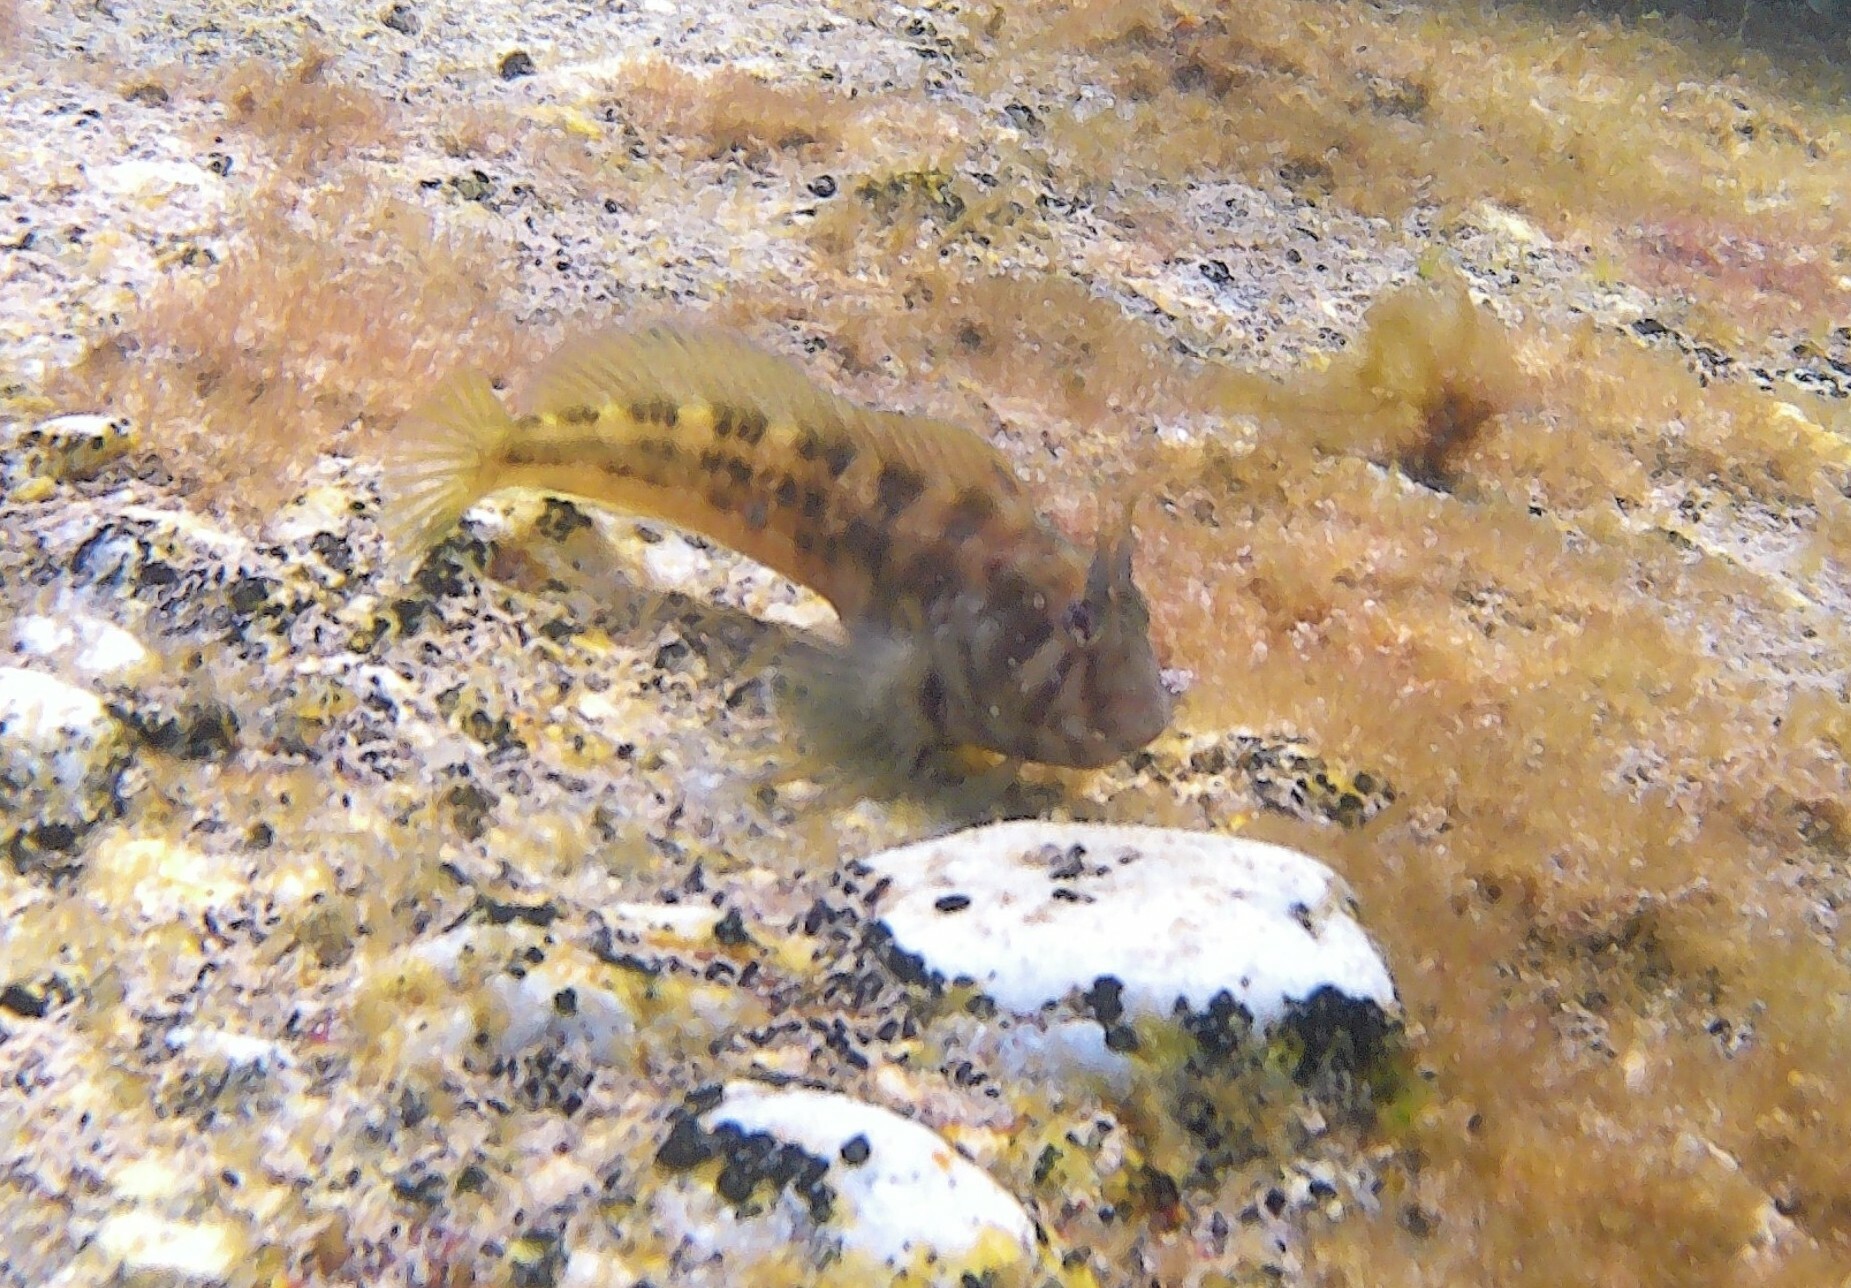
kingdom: Animalia
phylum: Chordata
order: Perciformes
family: Blenniidae
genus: Parablennius
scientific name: Parablennius tasmanianus
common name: Tasmanian blenny
